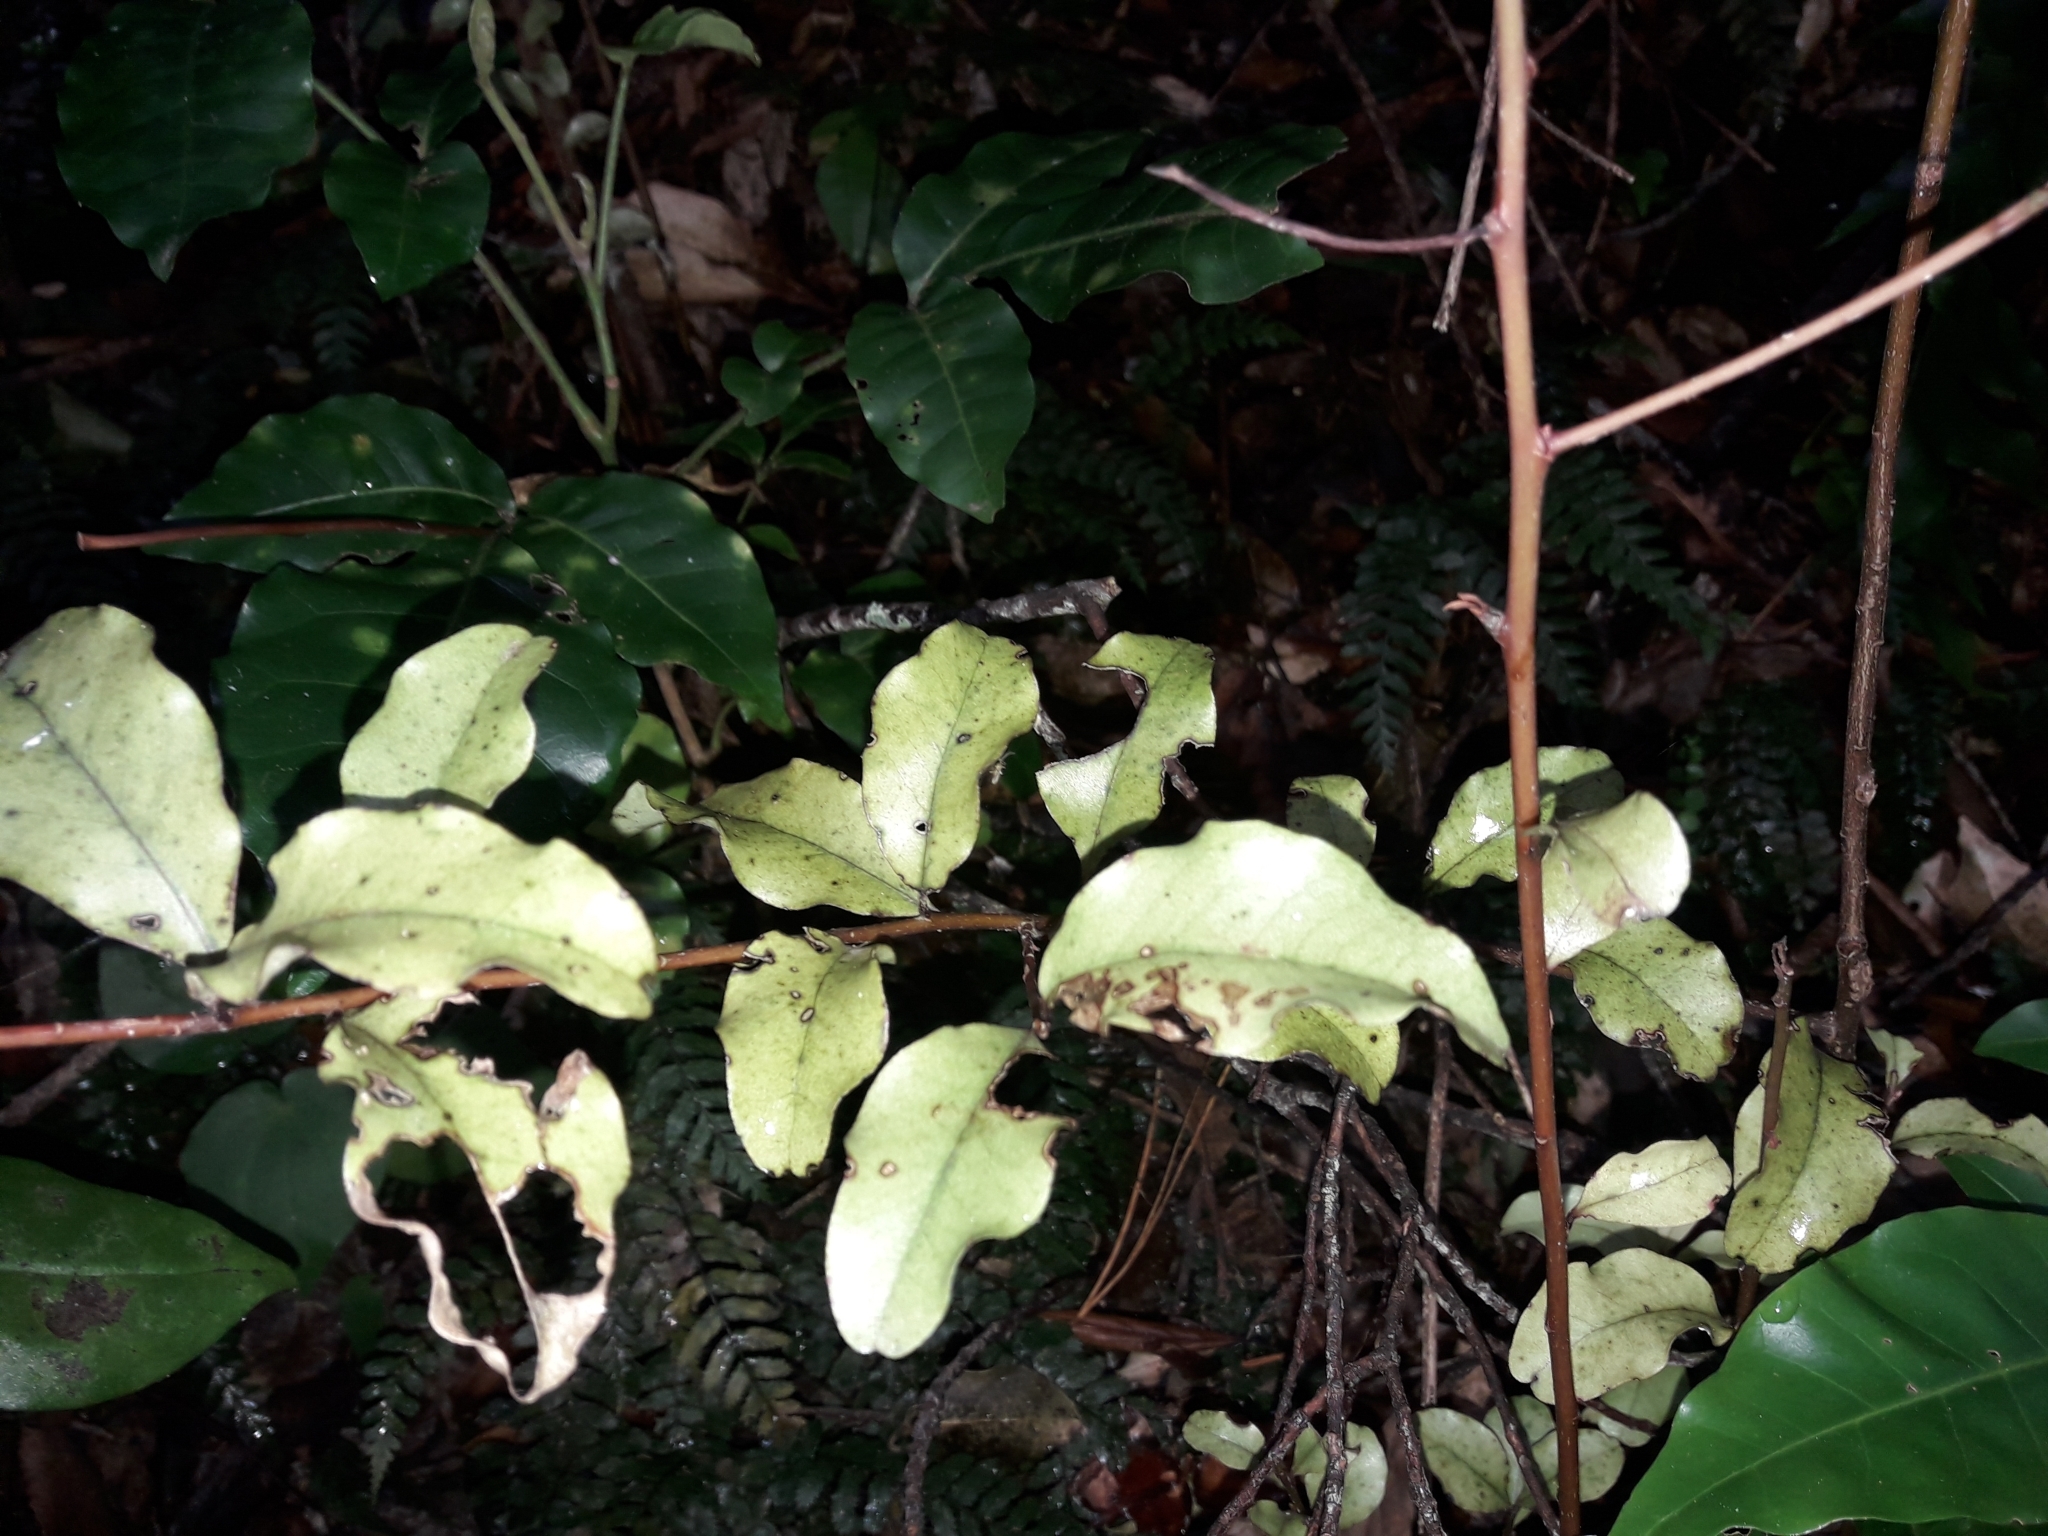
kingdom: Plantae
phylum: Tracheophyta
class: Magnoliopsida
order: Ericales
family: Primulaceae
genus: Myrsine
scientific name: Myrsine australis
